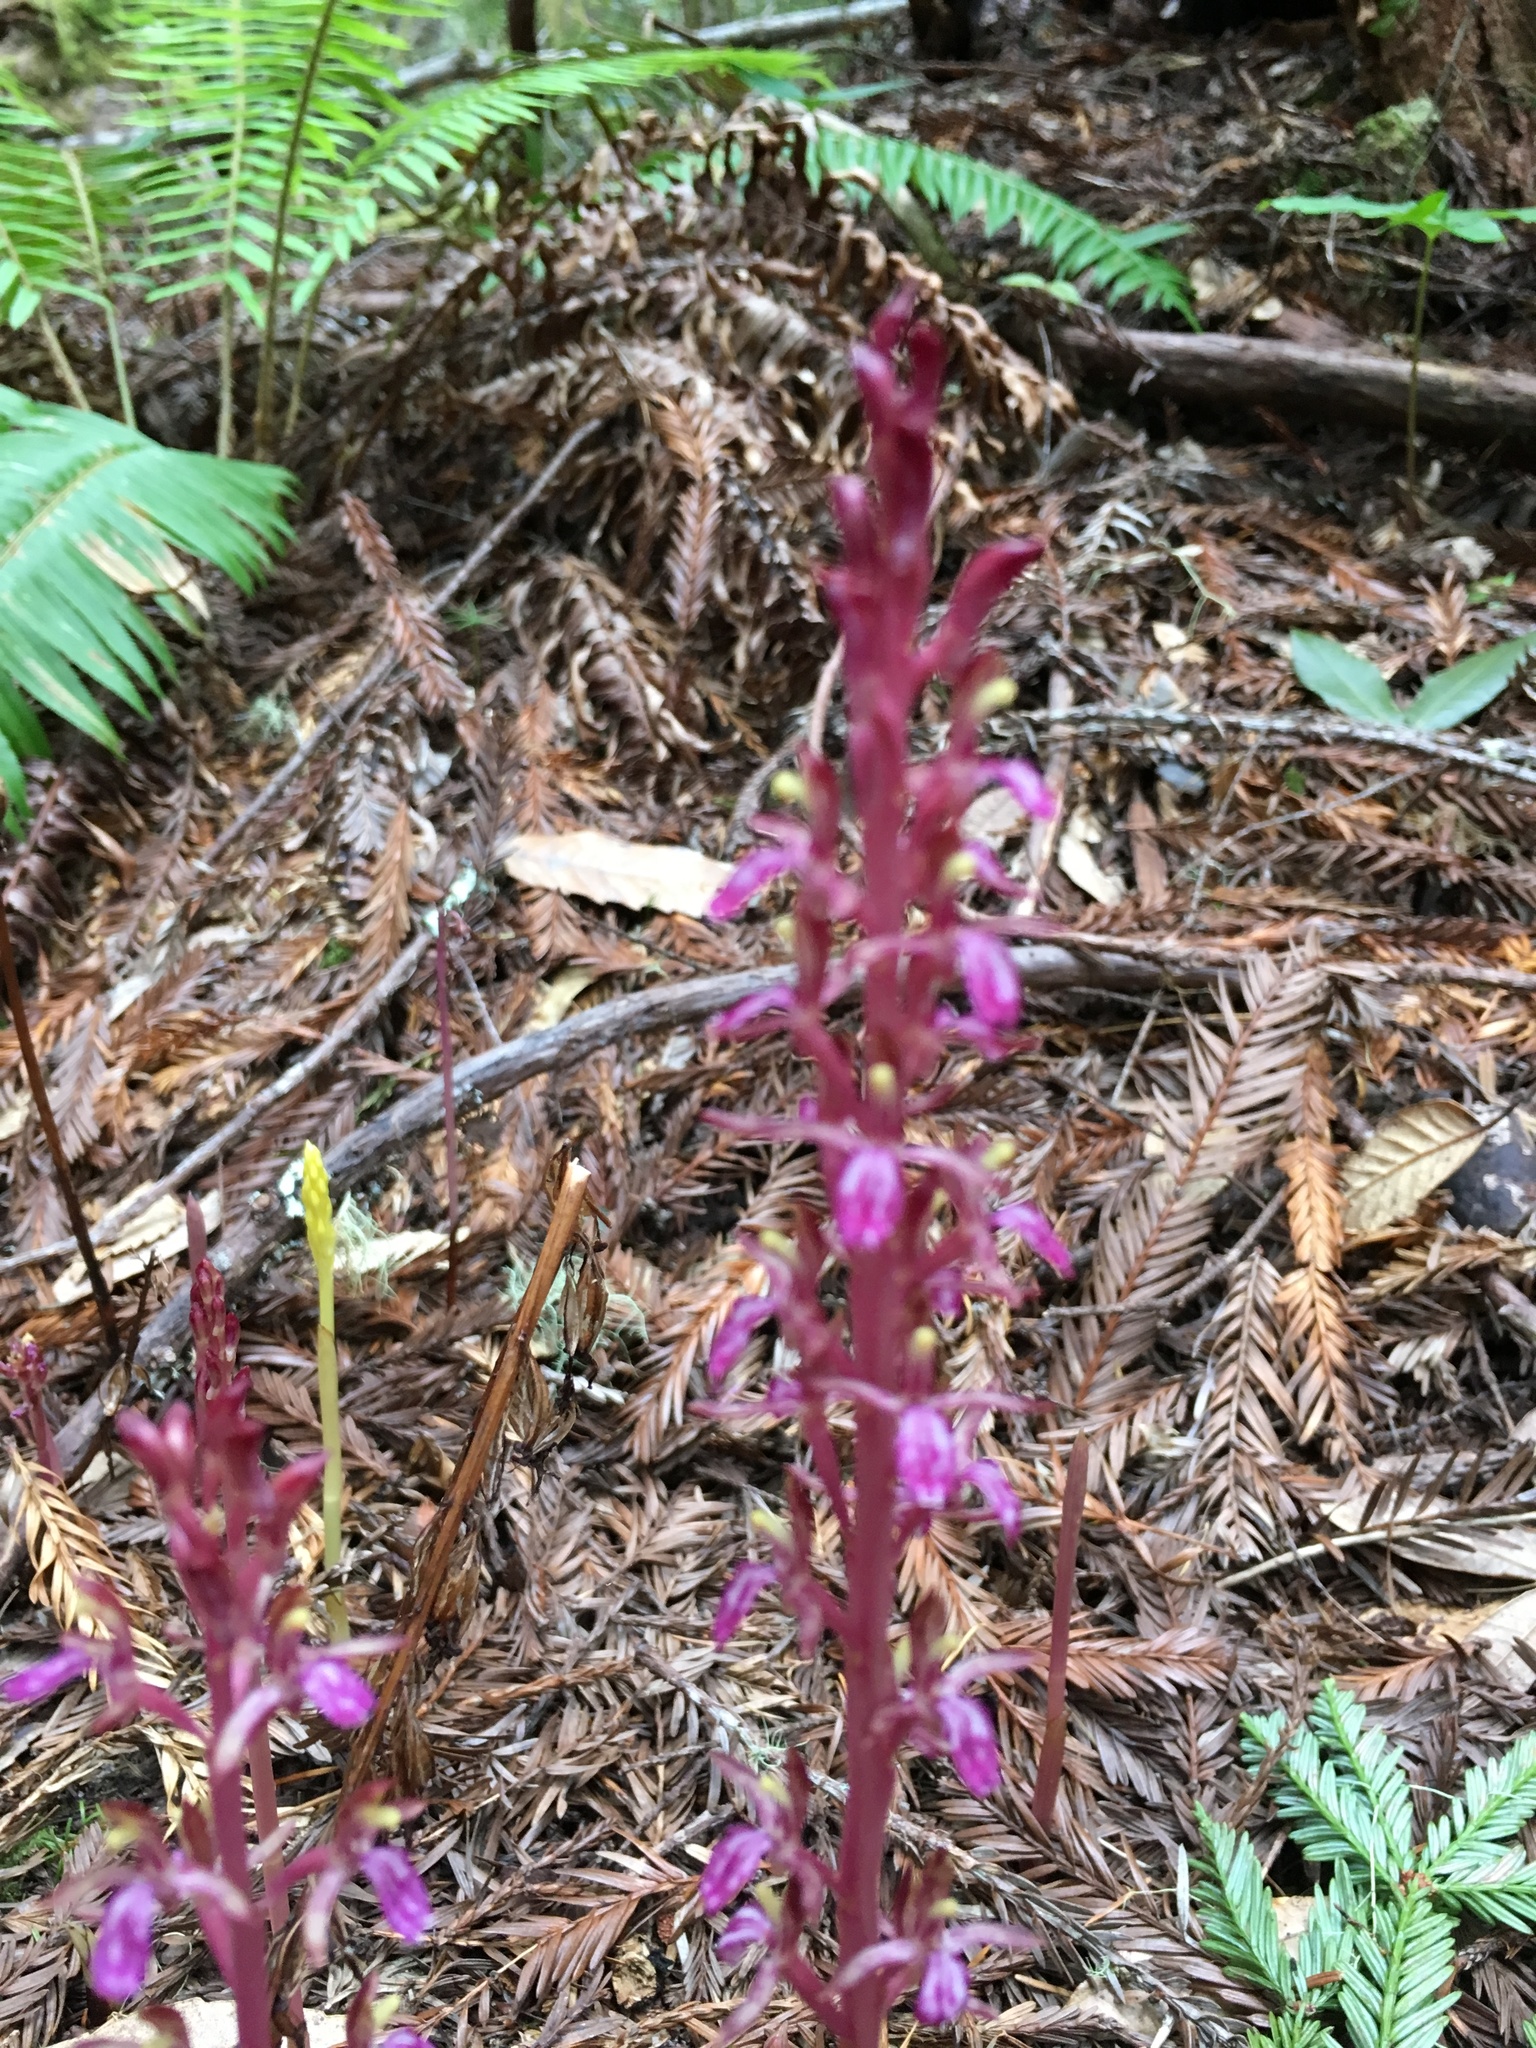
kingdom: Plantae
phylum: Tracheophyta
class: Liliopsida
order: Asparagales
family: Orchidaceae
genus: Corallorhiza
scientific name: Corallorhiza mertensiana
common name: Pacific coralroot
